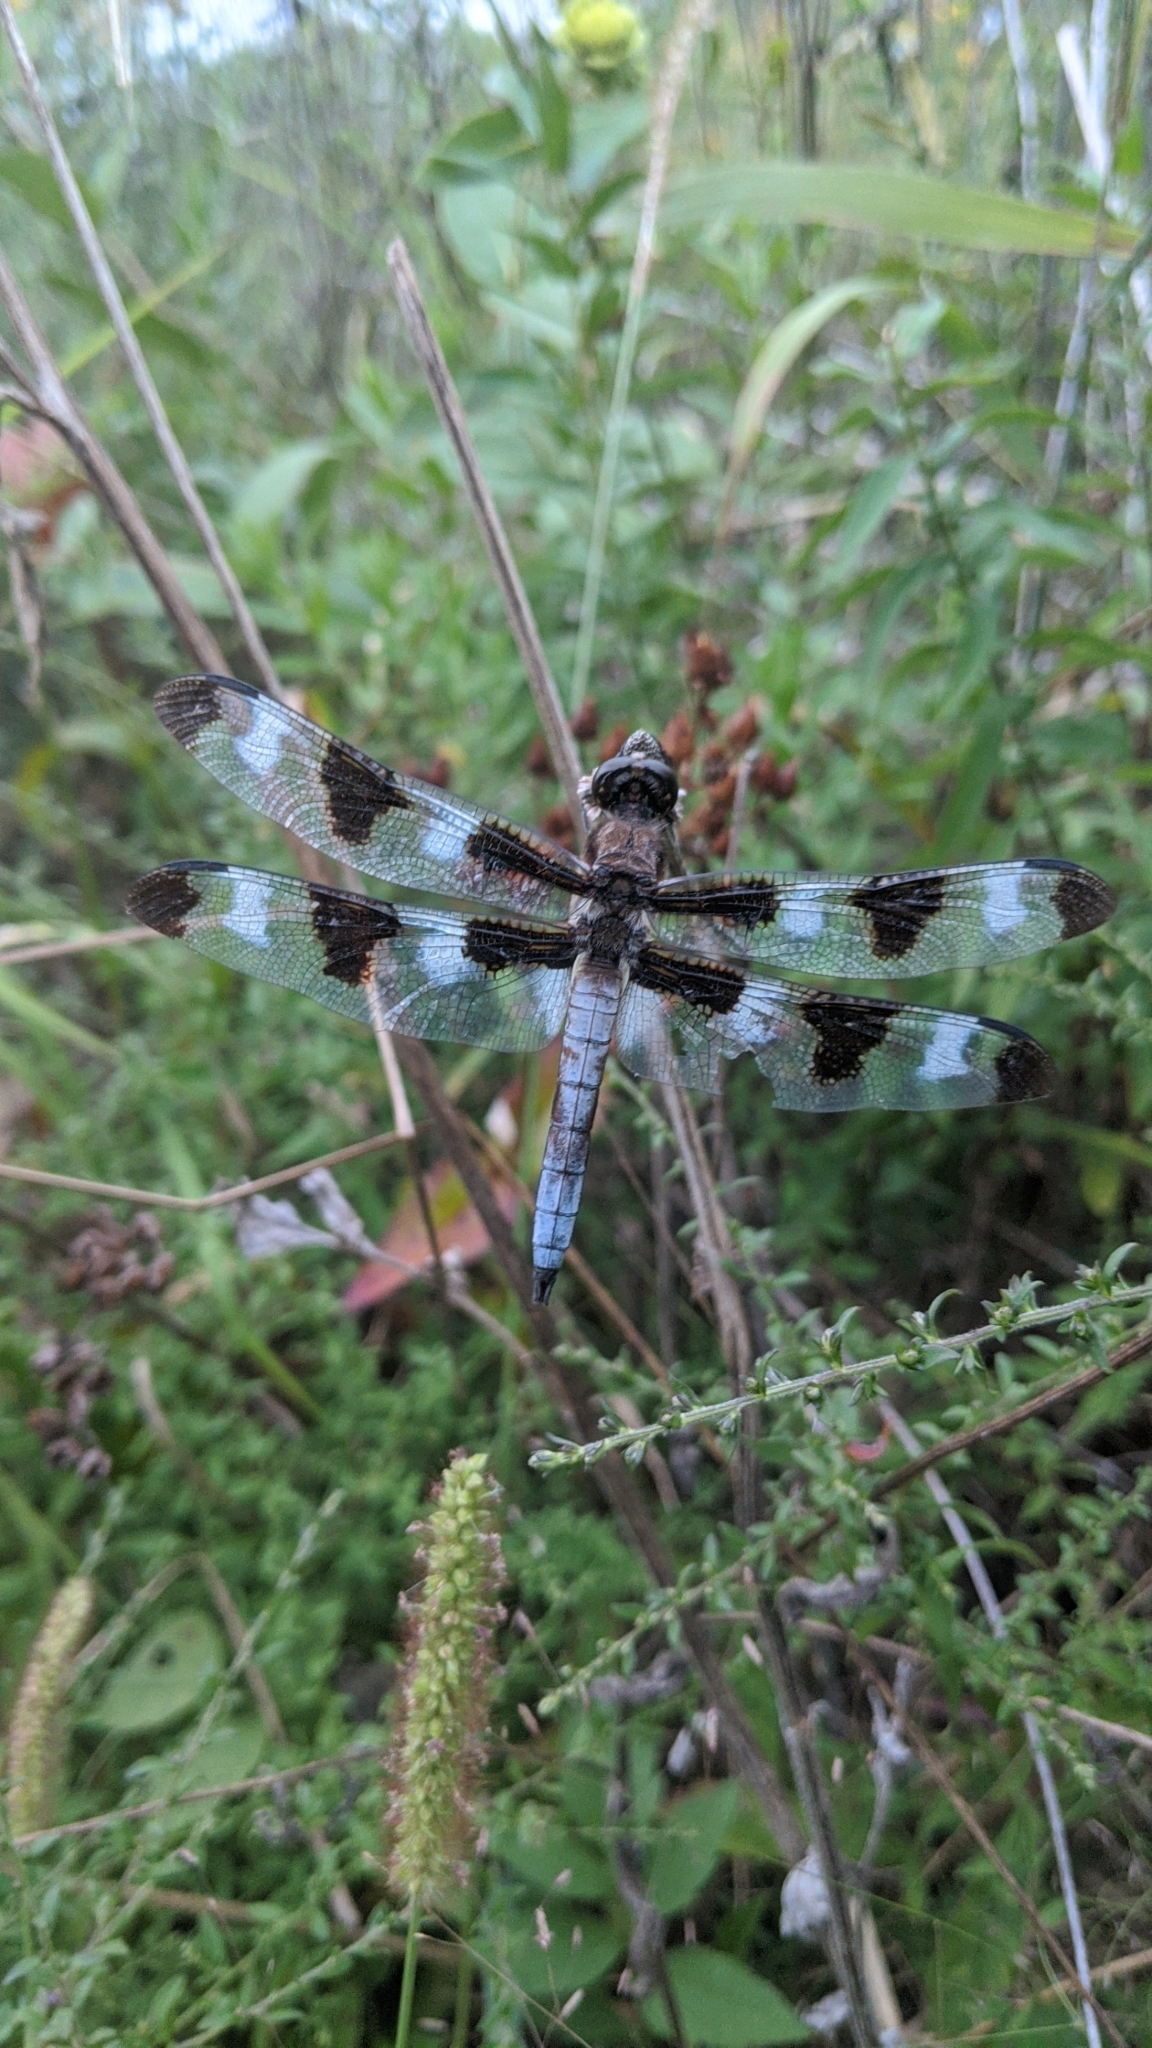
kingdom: Animalia
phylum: Arthropoda
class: Insecta
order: Odonata
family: Libellulidae
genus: Libellula
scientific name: Libellula pulchella
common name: Twelve-spotted skimmer
